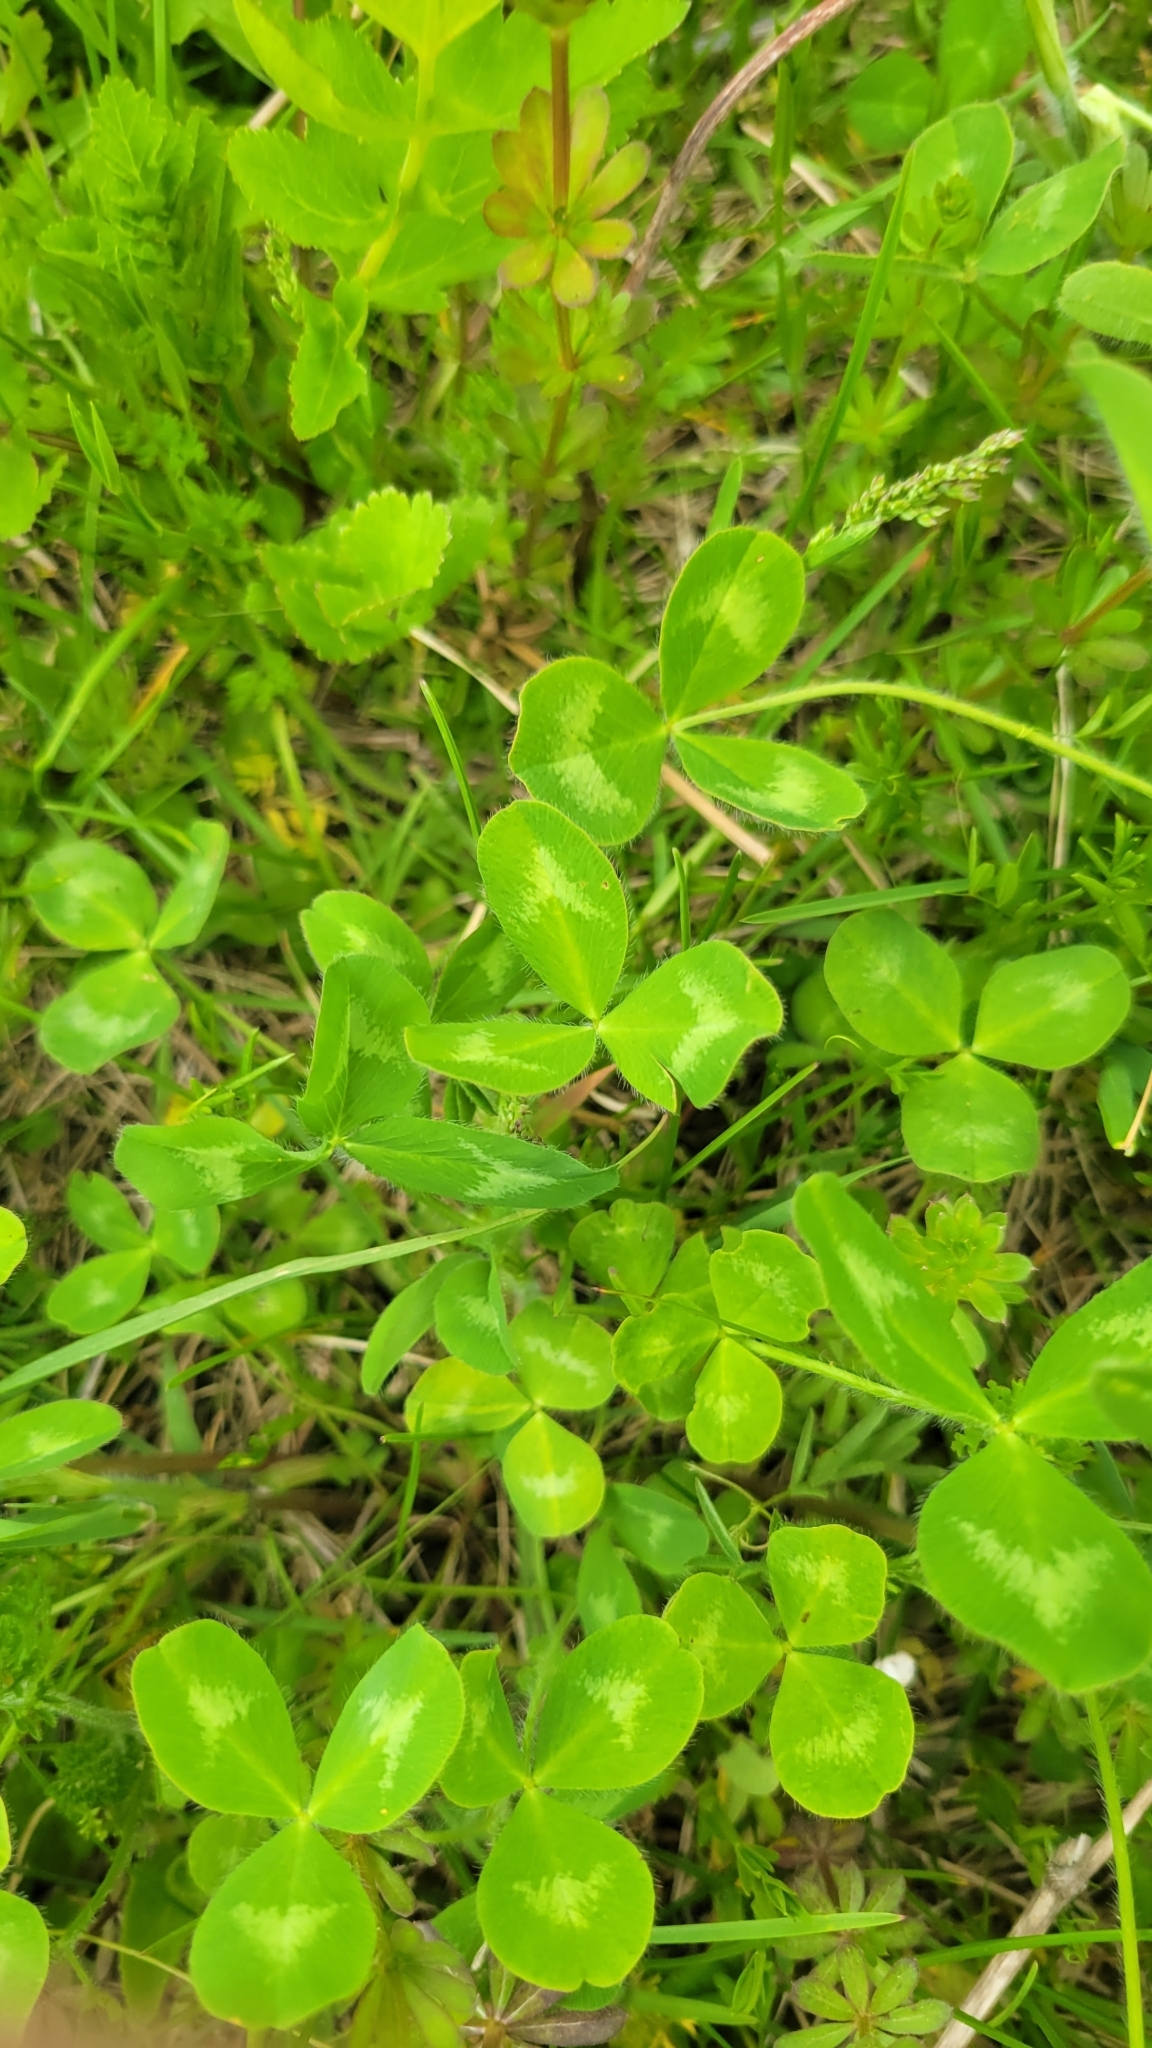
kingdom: Plantae
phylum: Tracheophyta
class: Magnoliopsida
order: Fabales
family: Fabaceae
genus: Trifolium
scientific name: Trifolium pratense
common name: Red clover
